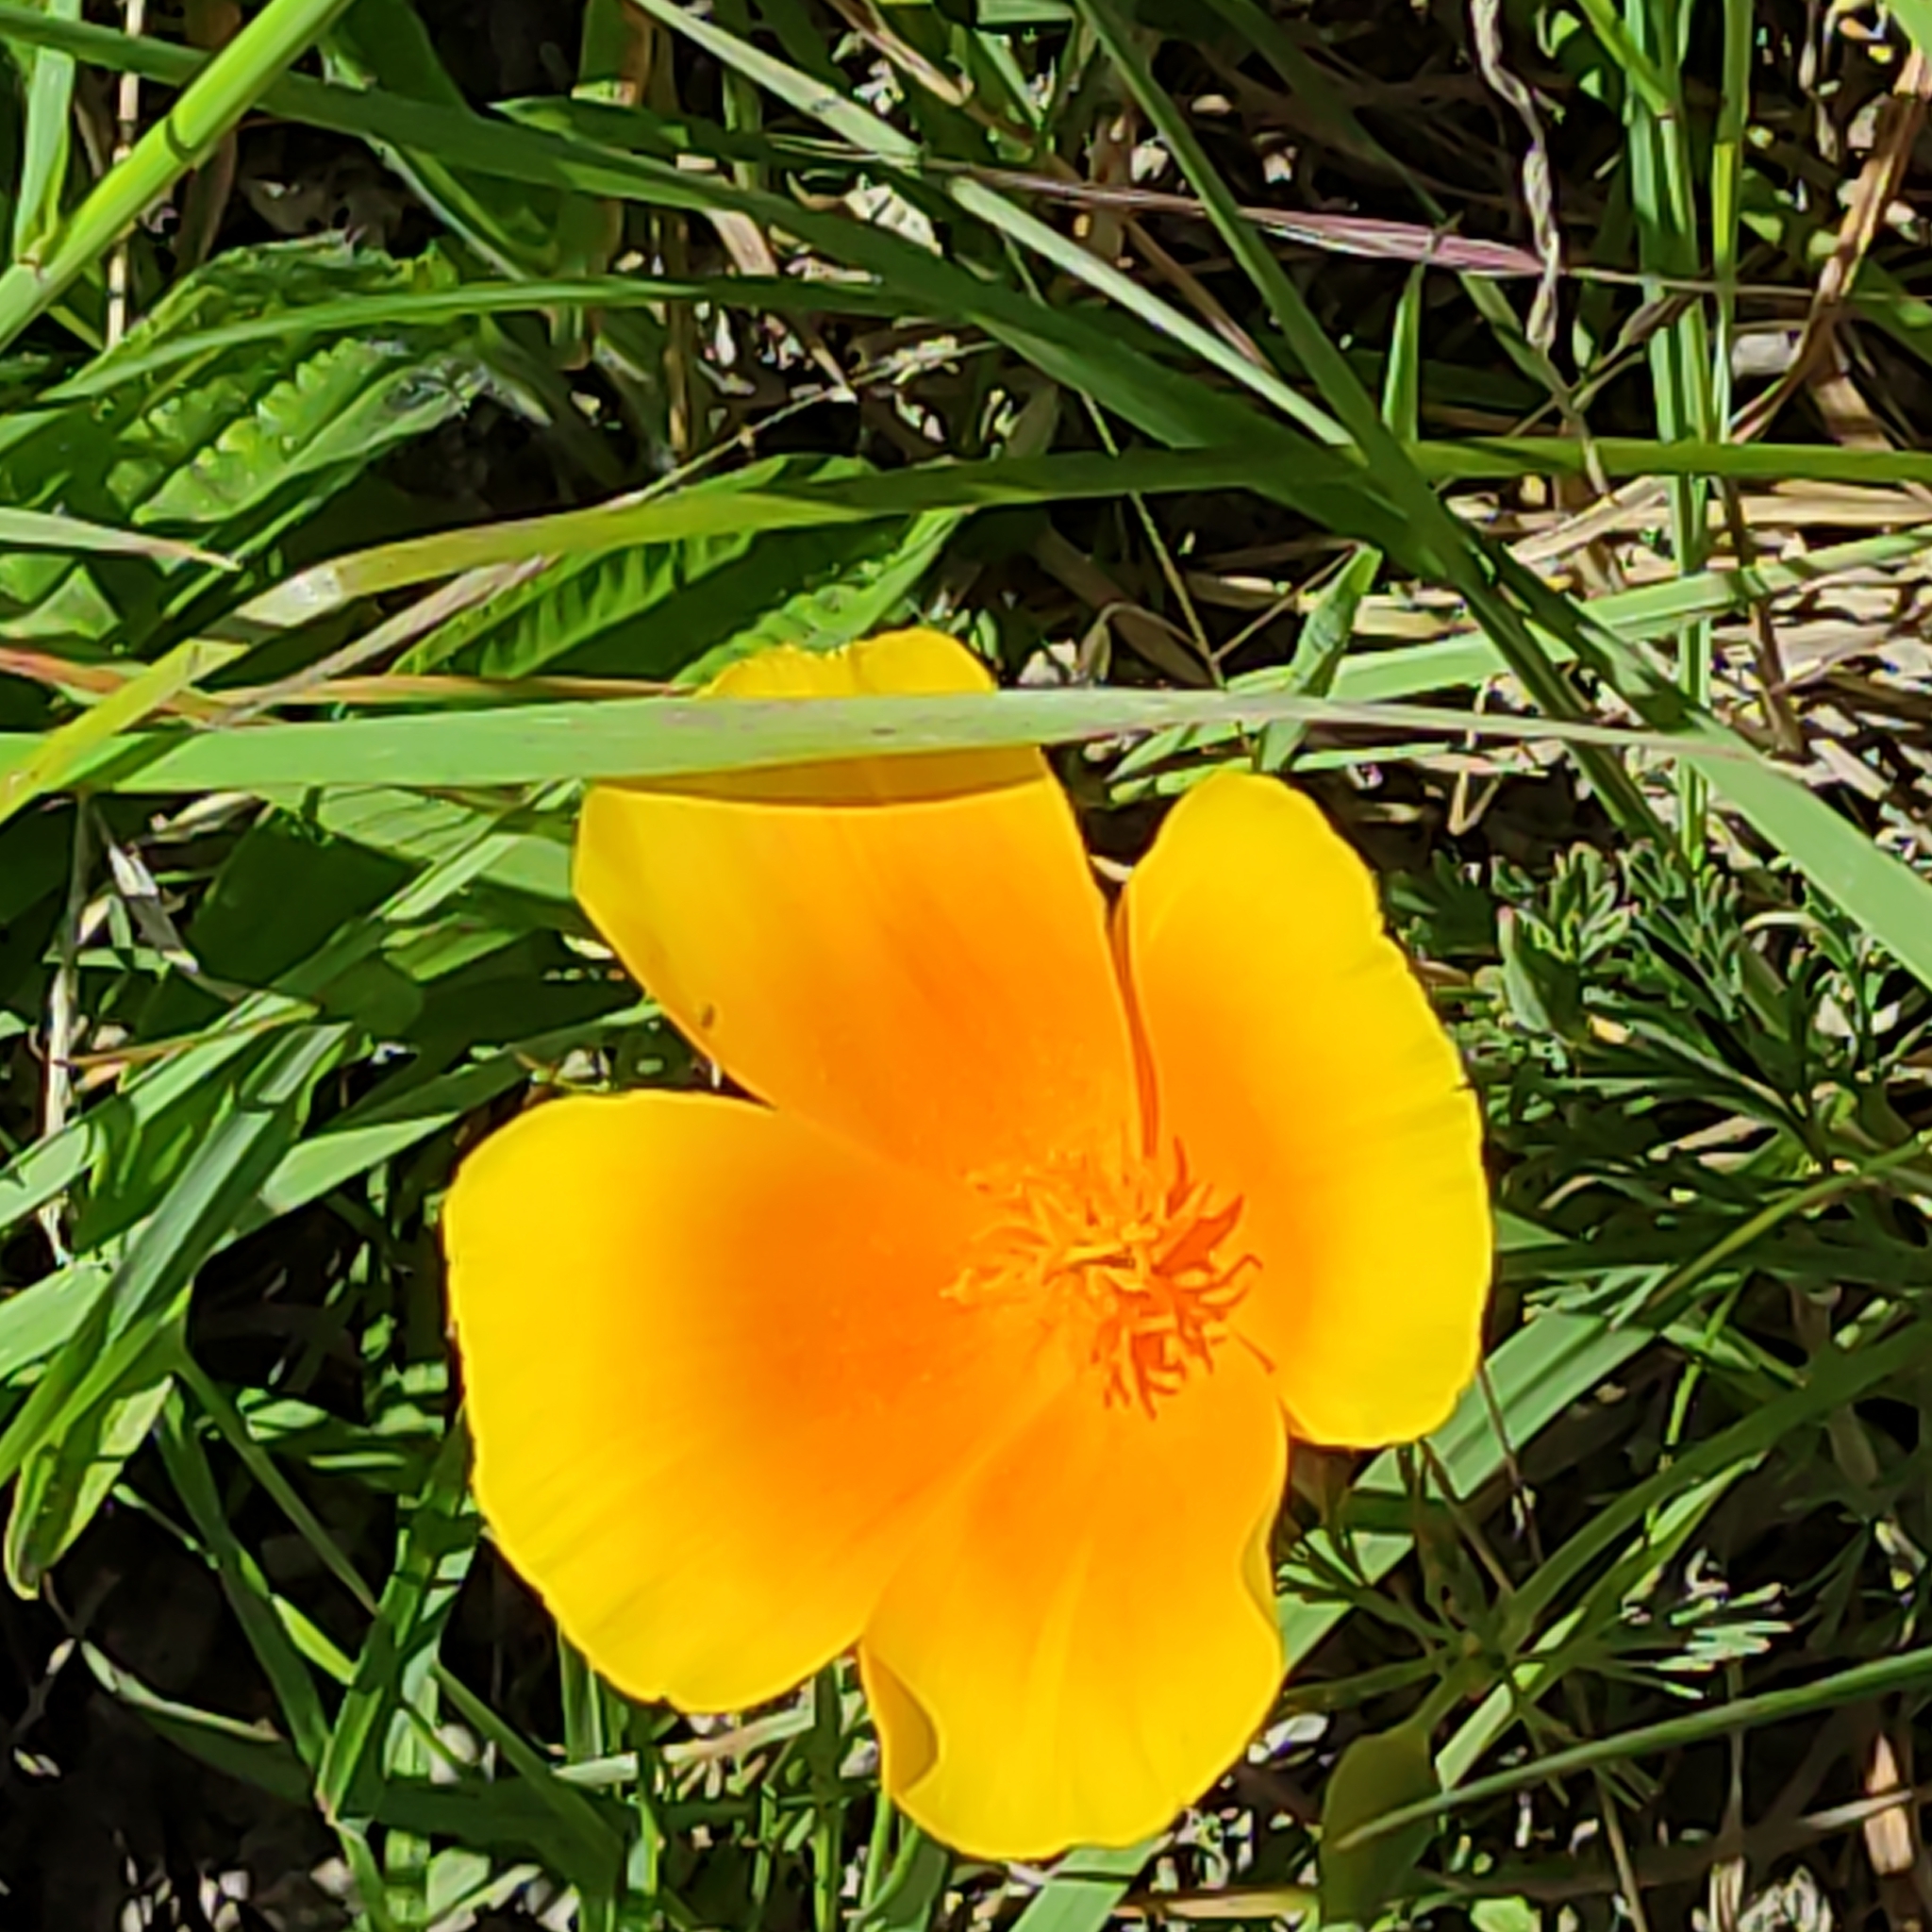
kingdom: Plantae
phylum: Tracheophyta
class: Magnoliopsida
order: Ranunculales
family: Papaveraceae
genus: Eschscholzia
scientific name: Eschscholzia californica
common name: California poppy
